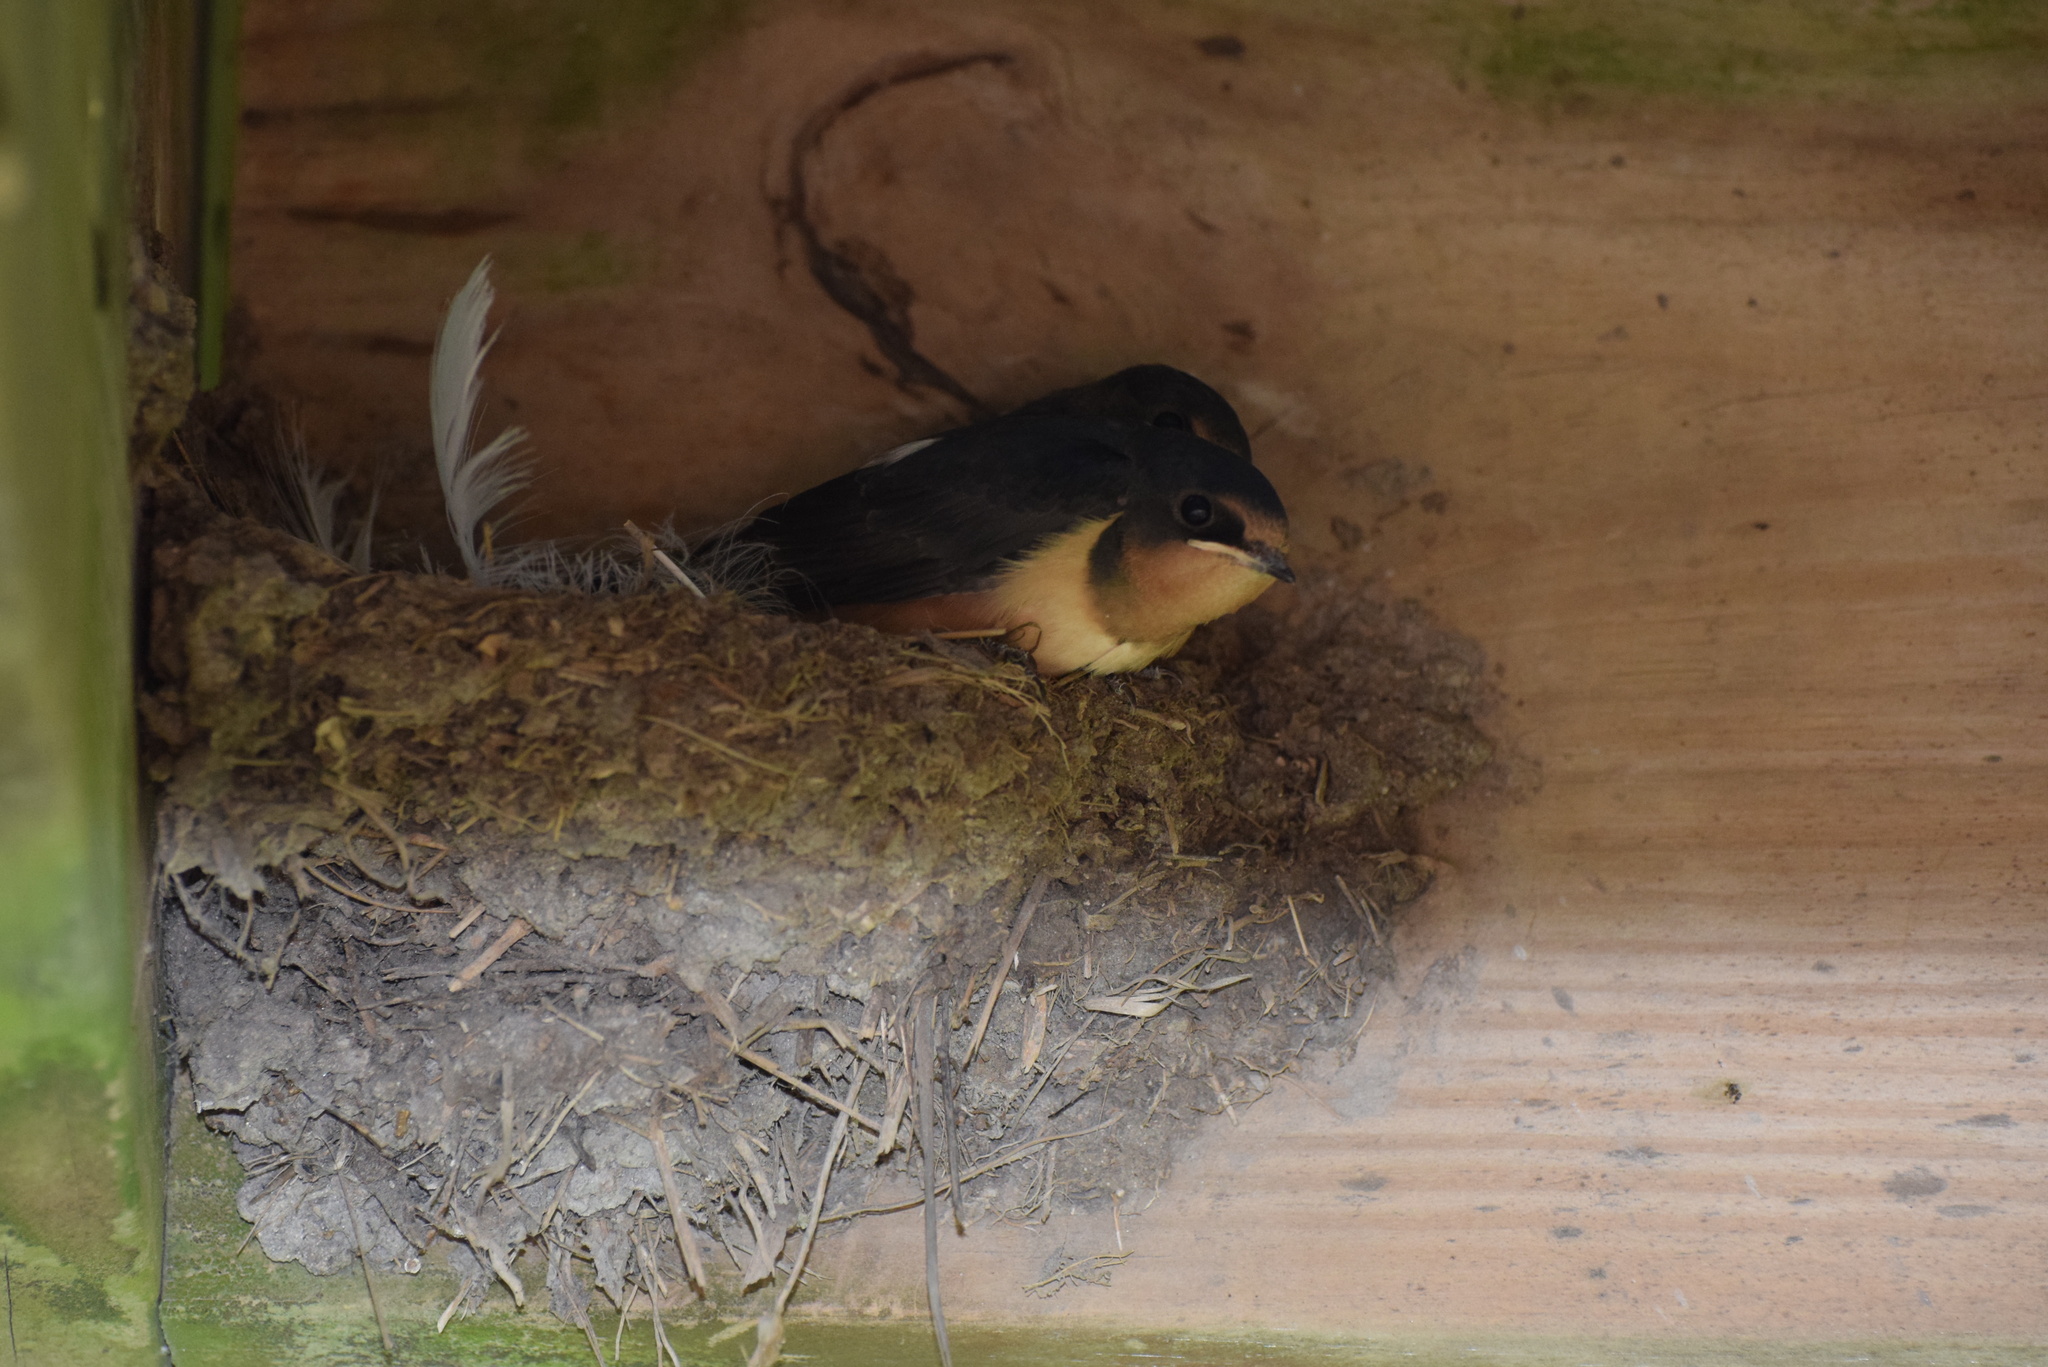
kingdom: Animalia
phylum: Chordata
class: Aves
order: Passeriformes
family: Hirundinidae
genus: Hirundo
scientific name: Hirundo rustica
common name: Barn swallow
